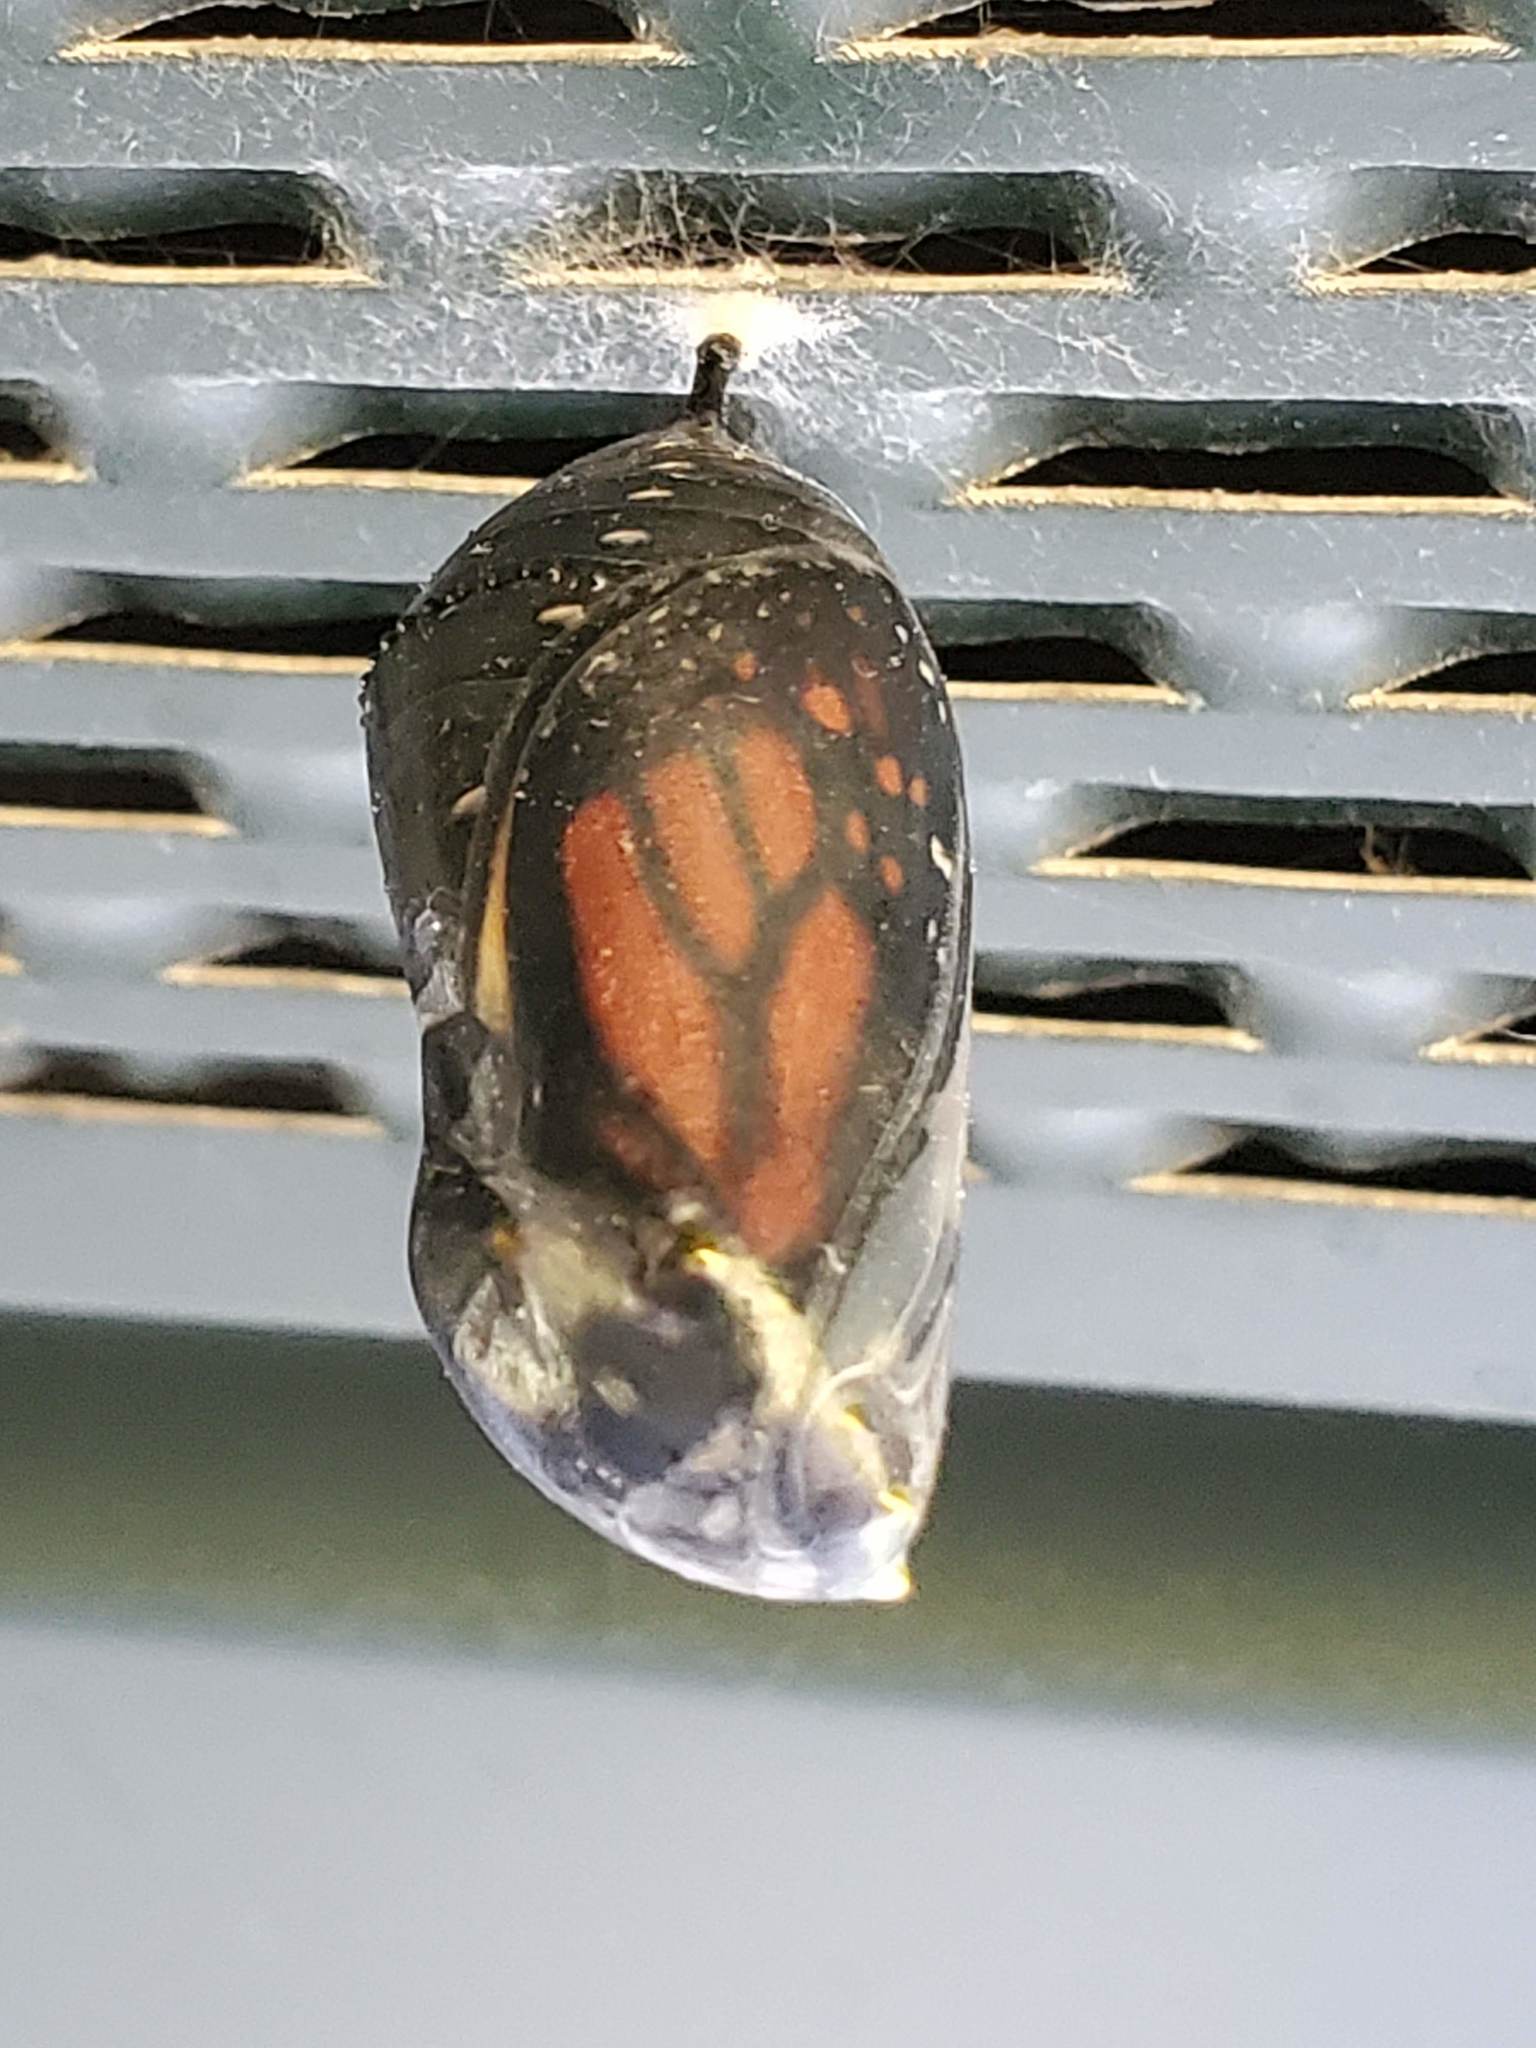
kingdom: Animalia
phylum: Arthropoda
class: Insecta
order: Lepidoptera
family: Nymphalidae
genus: Danaus
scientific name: Danaus plexippus
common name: Monarch
